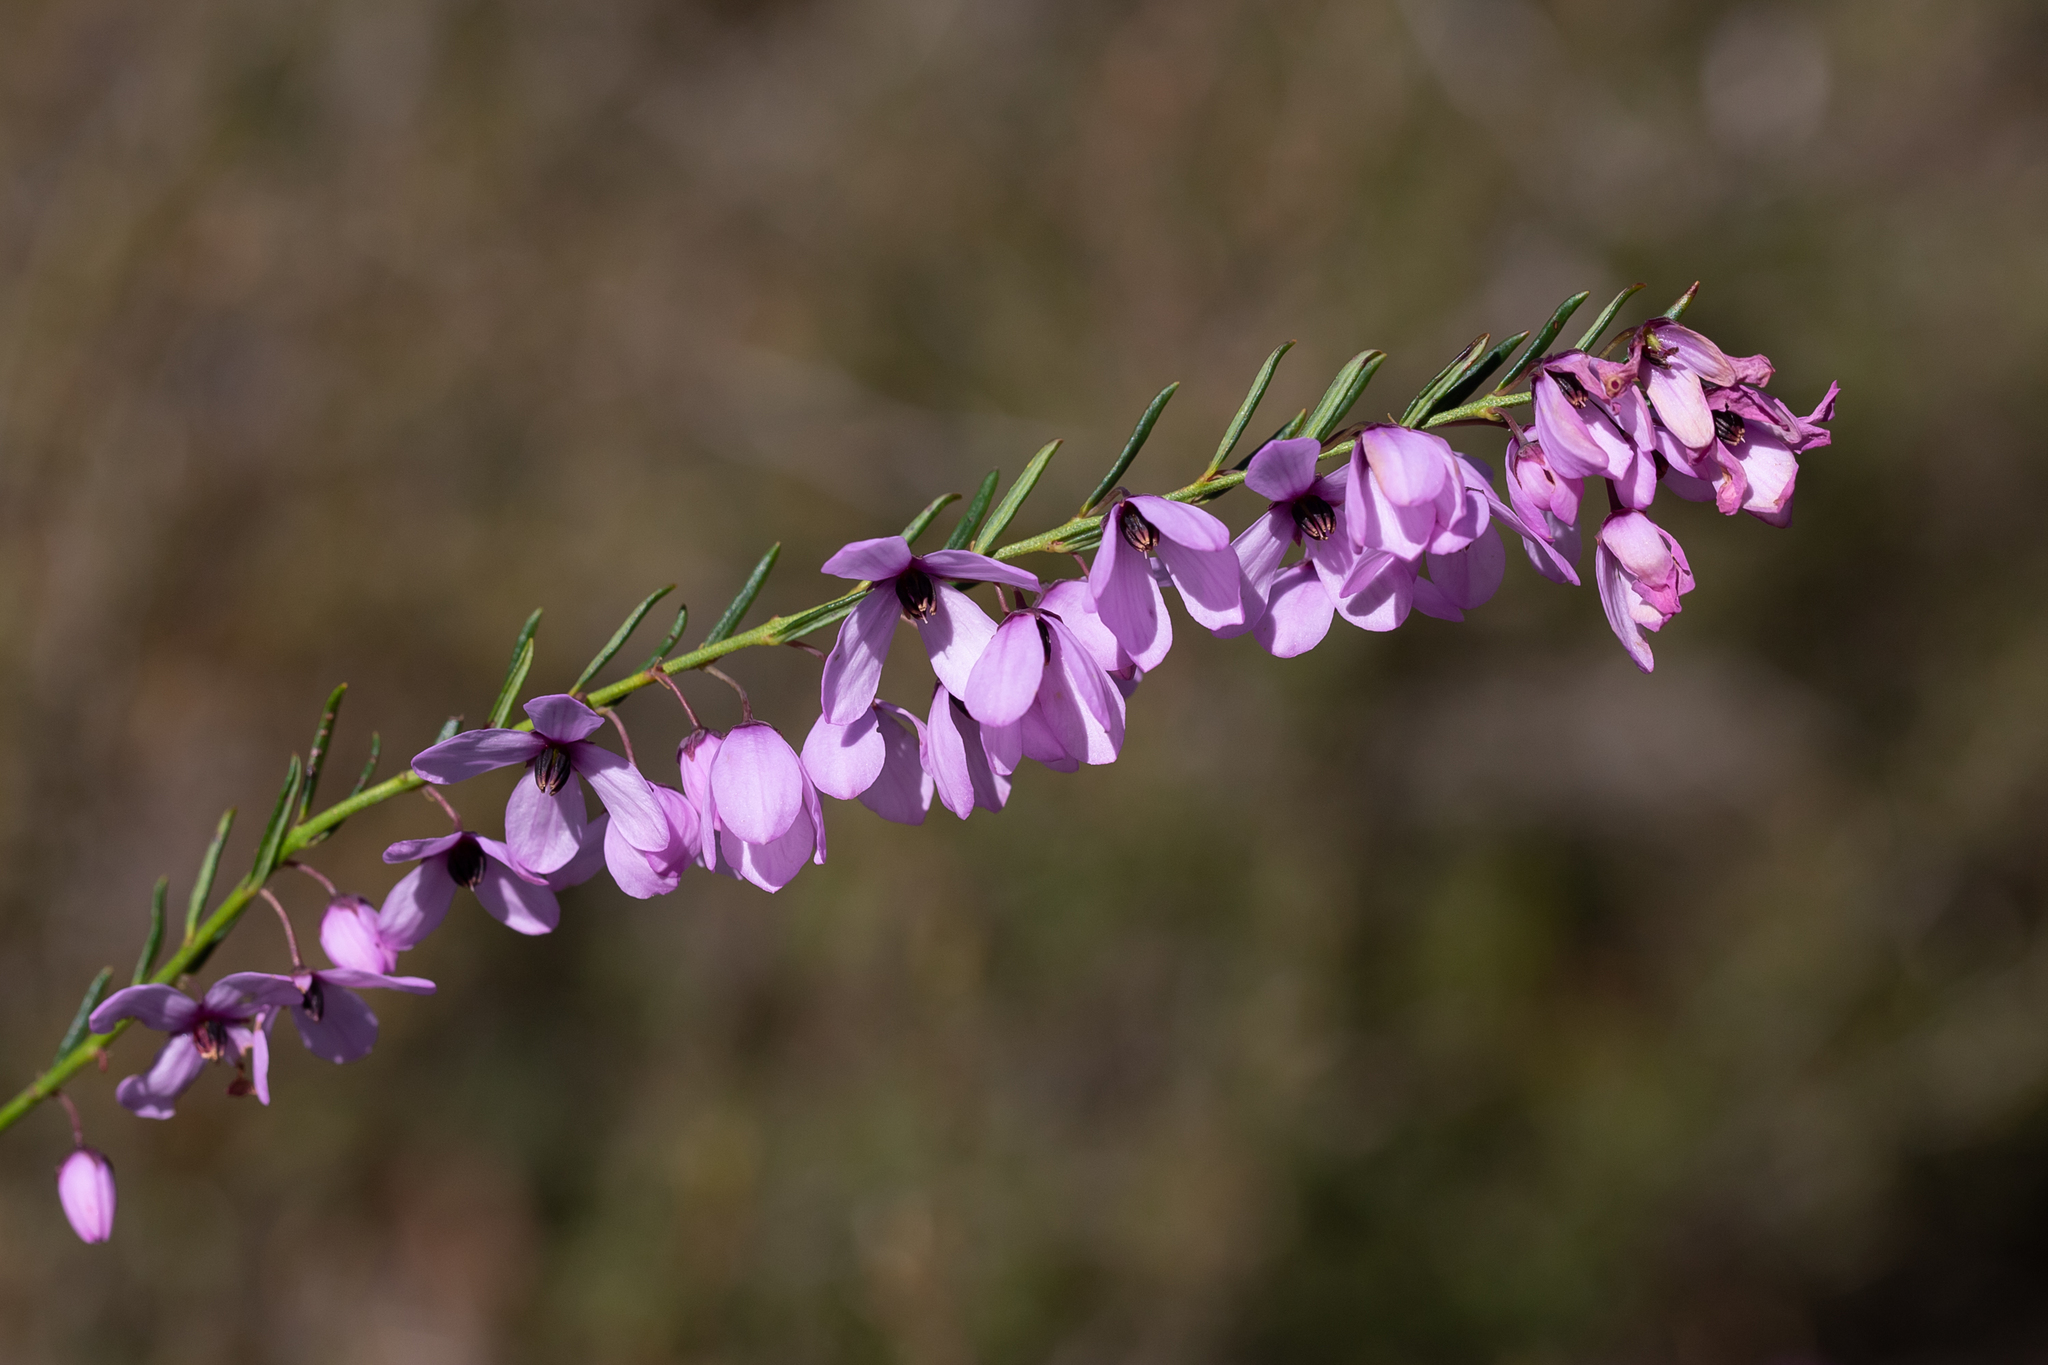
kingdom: Plantae
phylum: Tracheophyta
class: Magnoliopsida
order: Oxalidales
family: Elaeocarpaceae
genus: Tetratheca
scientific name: Tetratheca pilosa
